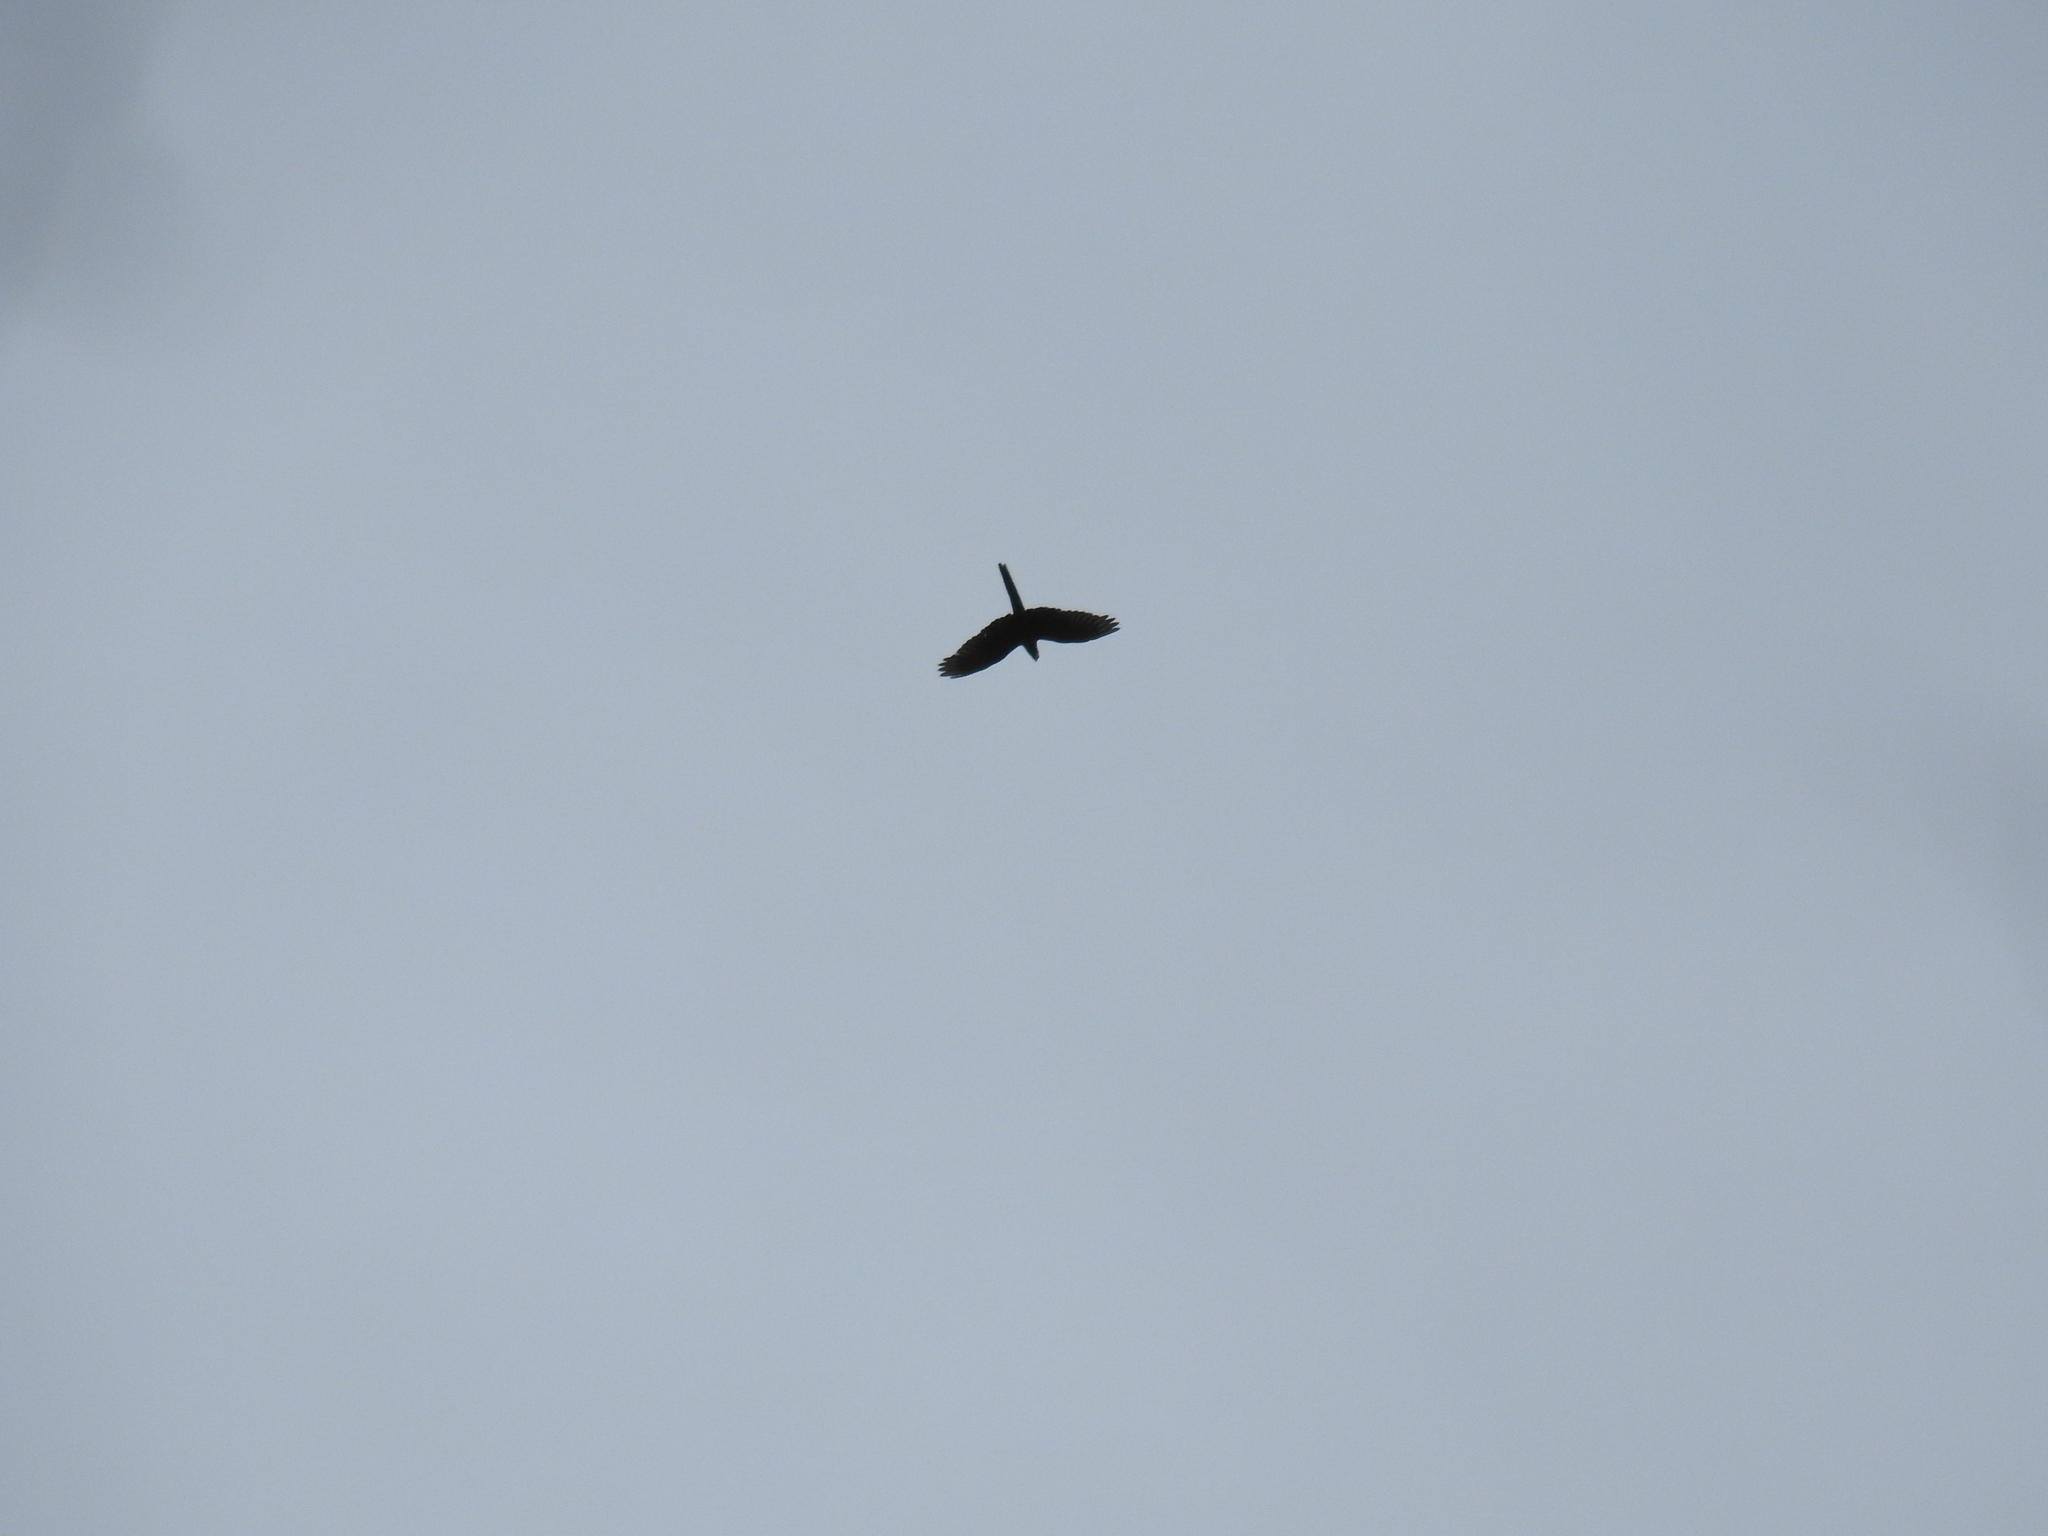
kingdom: Animalia
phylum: Chordata
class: Aves
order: Psittaciformes
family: Psittacidae
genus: Ara
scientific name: Ara militaris
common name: Military macaw
